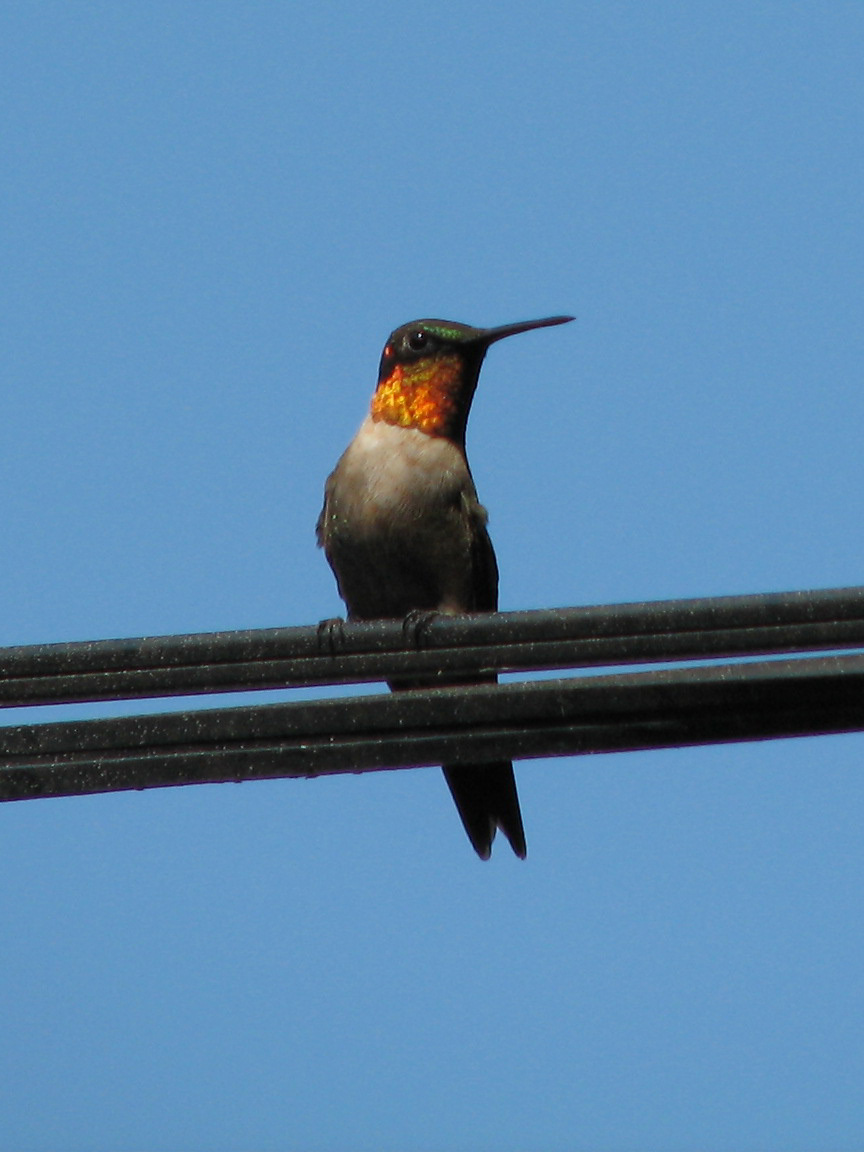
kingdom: Animalia
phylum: Chordata
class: Aves
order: Apodiformes
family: Trochilidae
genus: Archilochus
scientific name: Archilochus colubris
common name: Ruby-throated hummingbird
